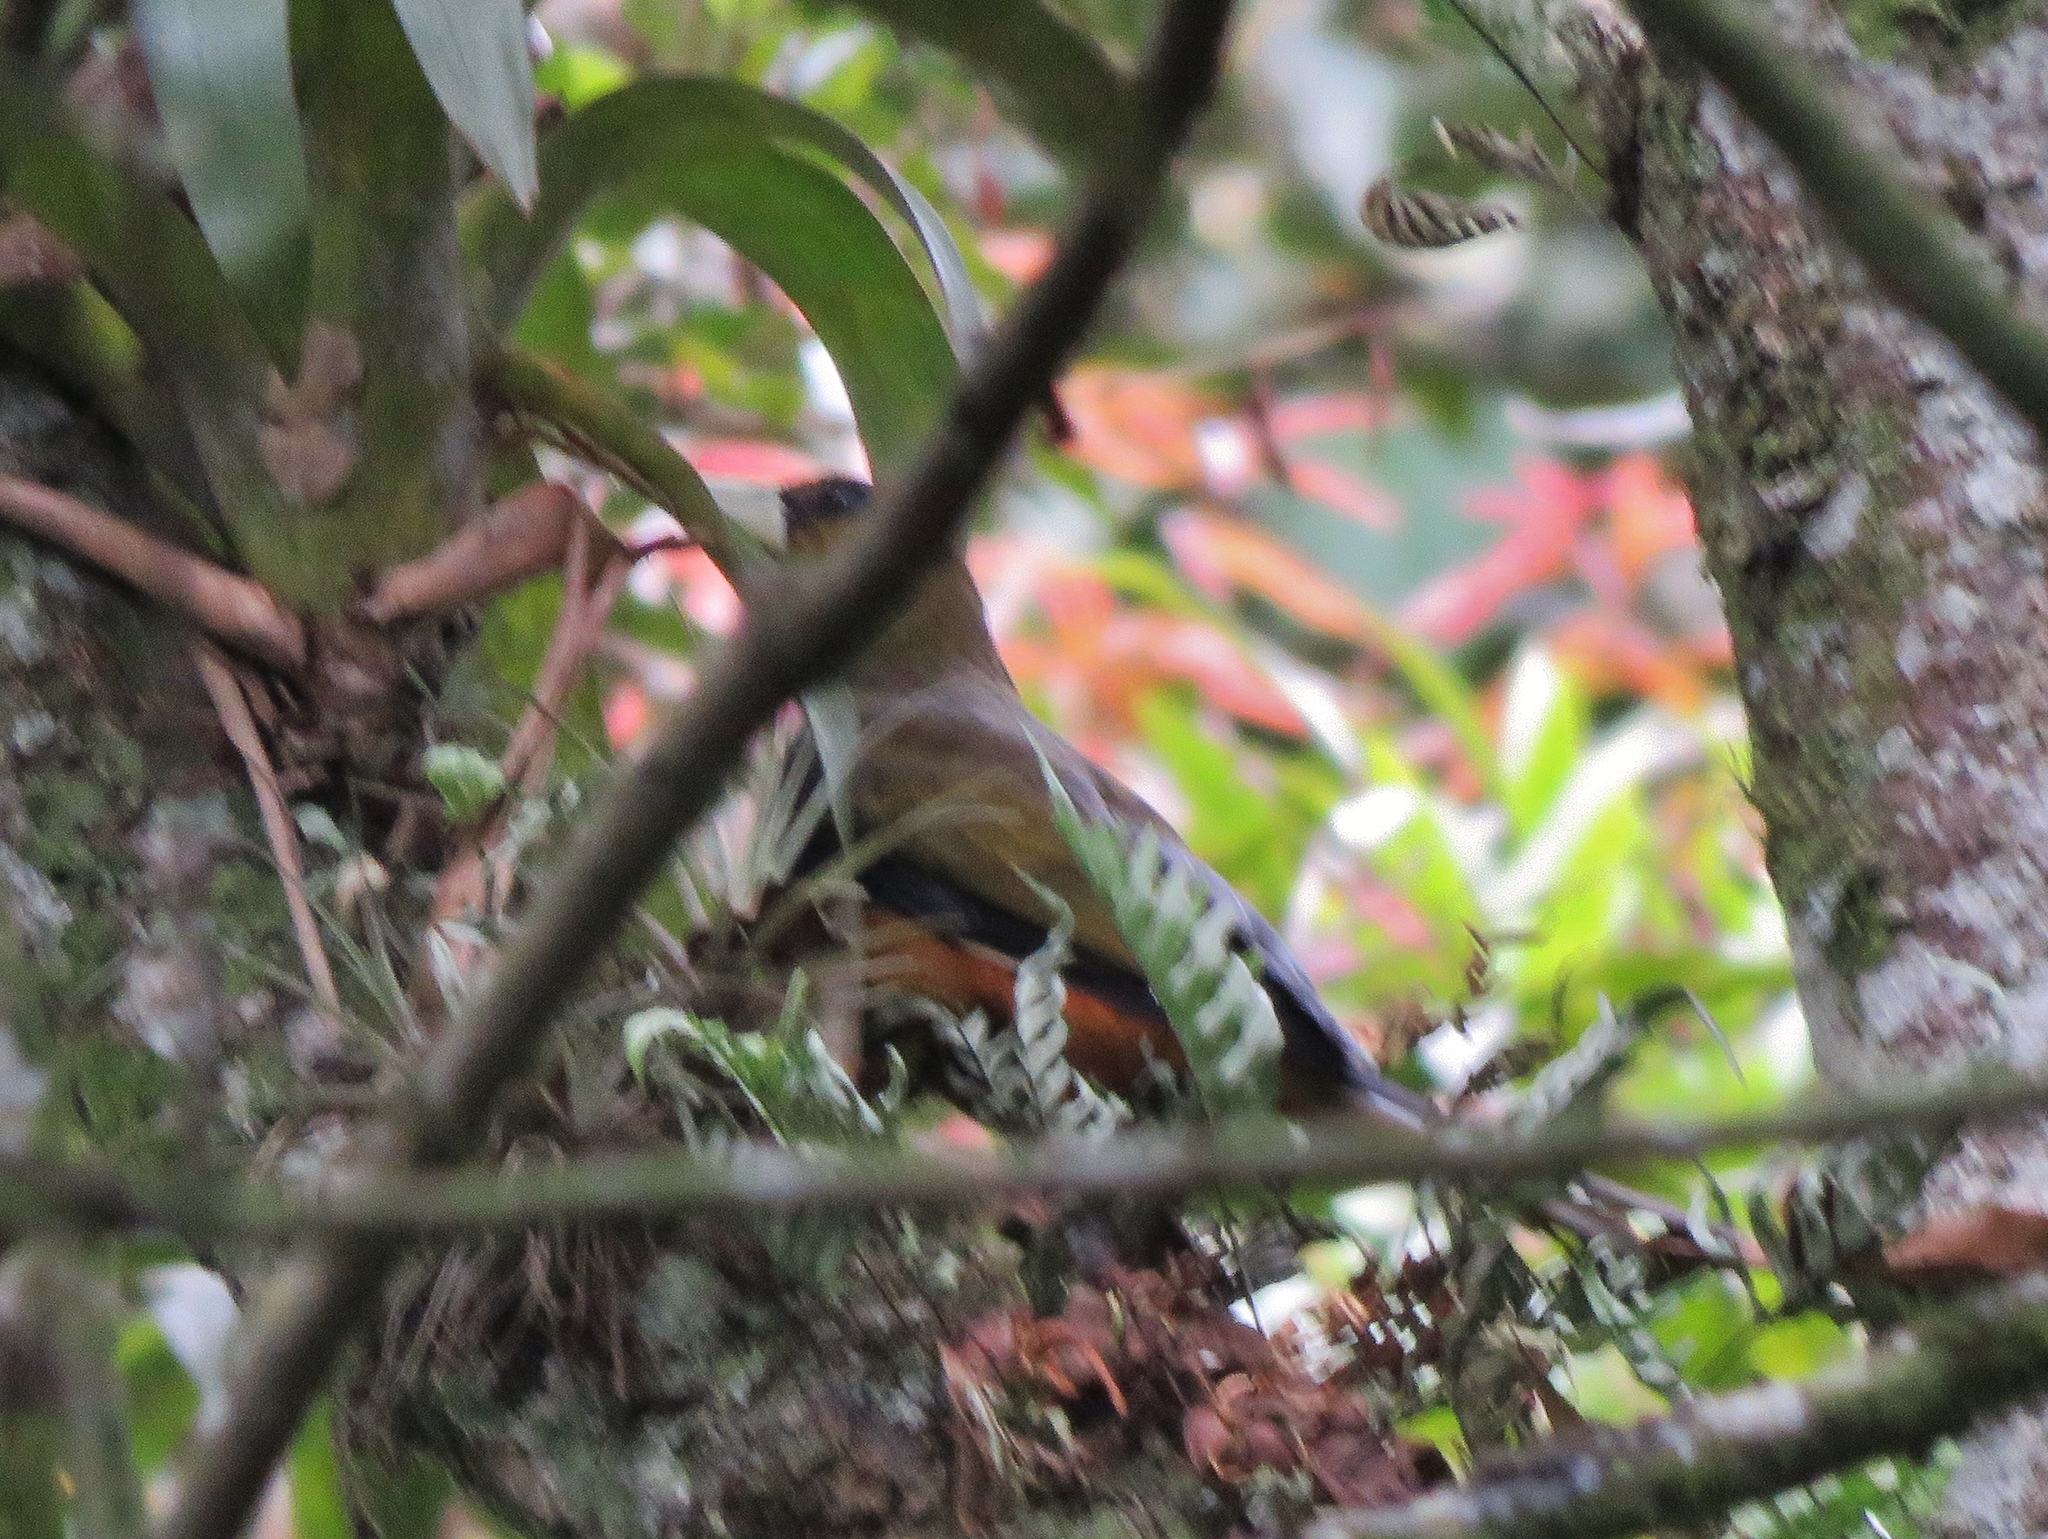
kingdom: Animalia
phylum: Chordata
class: Aves
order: Passeriformes
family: Icteridae
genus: Psarocolius
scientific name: Psarocolius atrovirens
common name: Dusky-green oropendola
